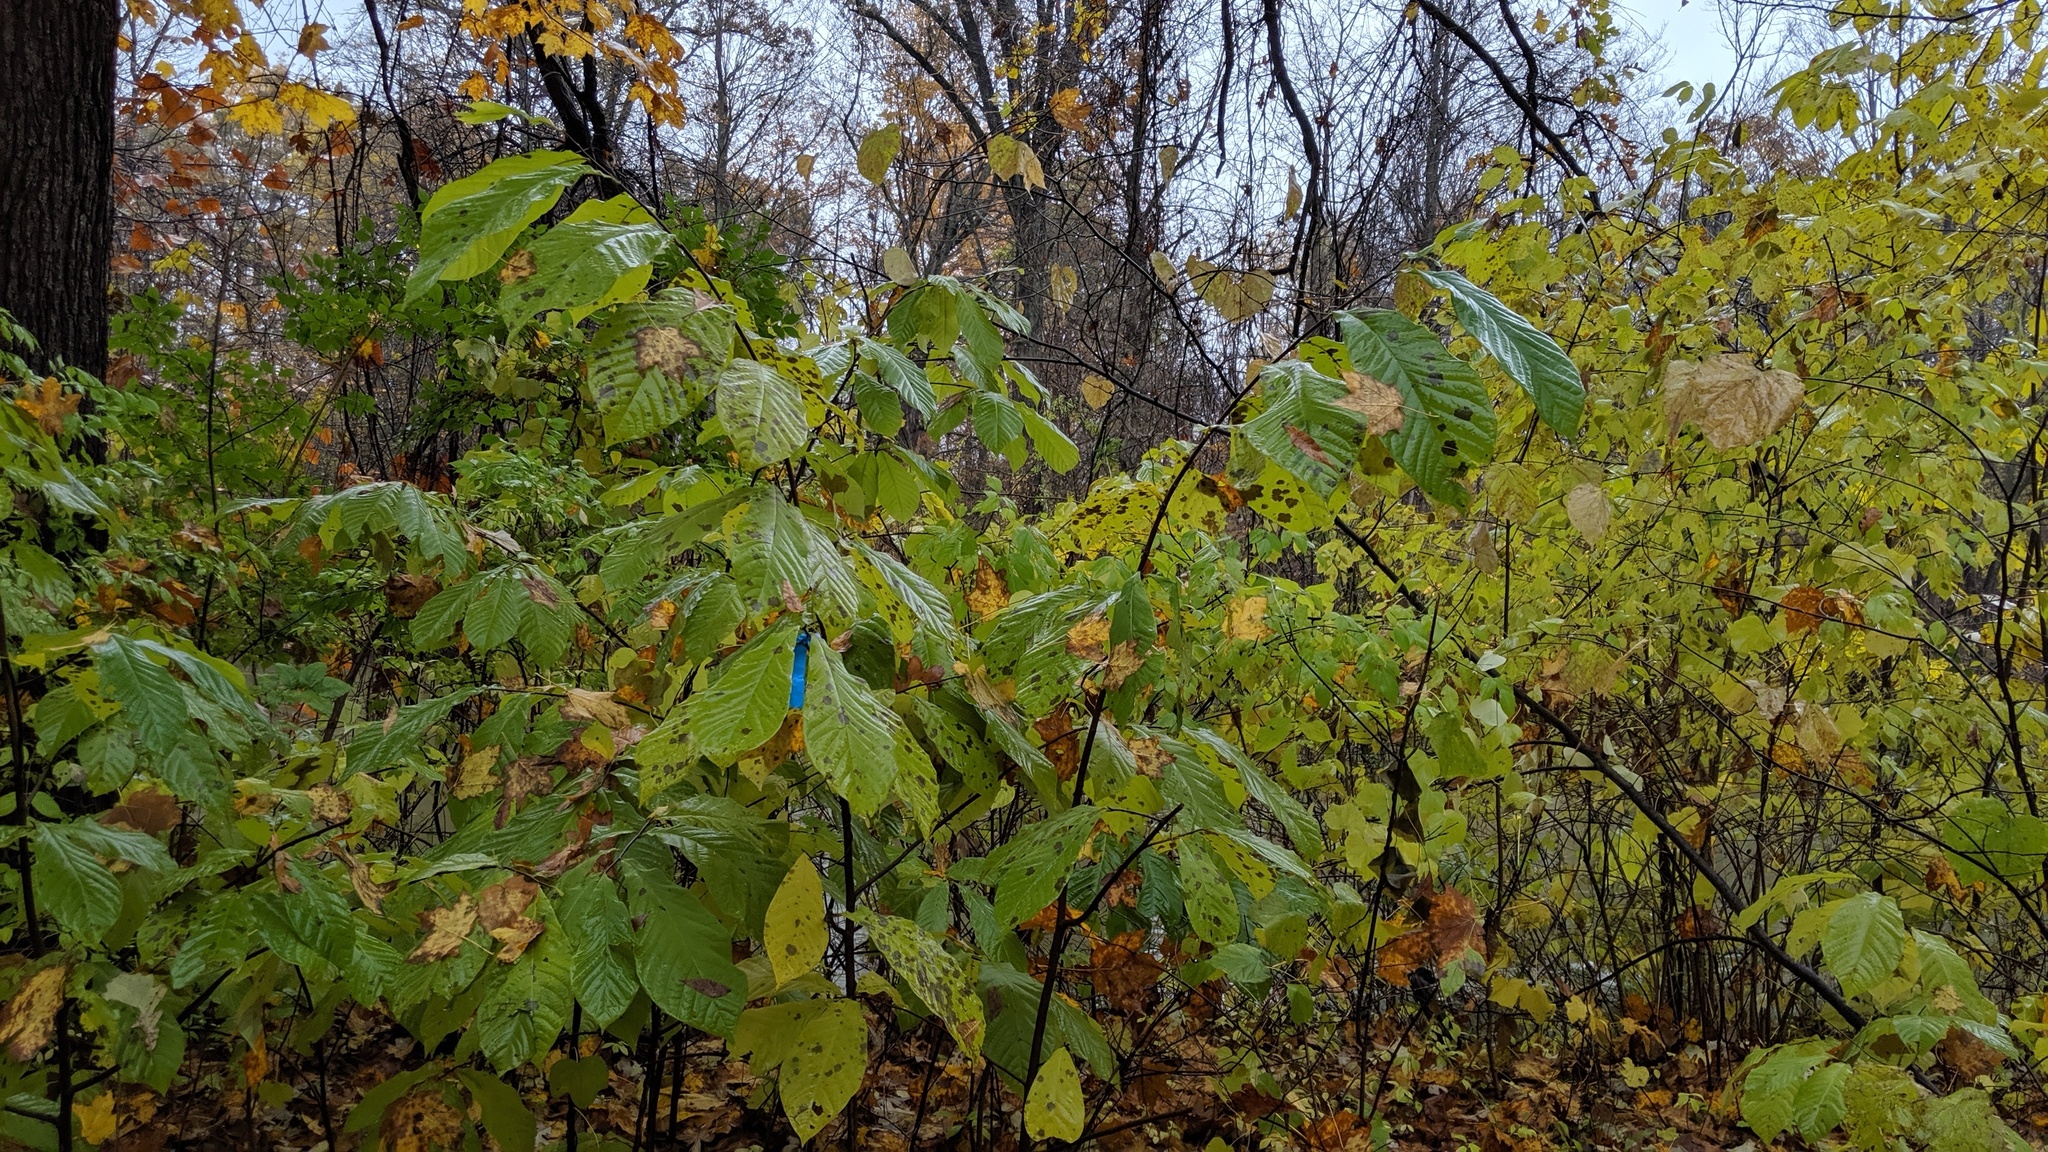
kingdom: Plantae
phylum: Tracheophyta
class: Magnoliopsida
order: Magnoliales
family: Annonaceae
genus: Asimina
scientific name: Asimina triloba
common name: Dog-banana
